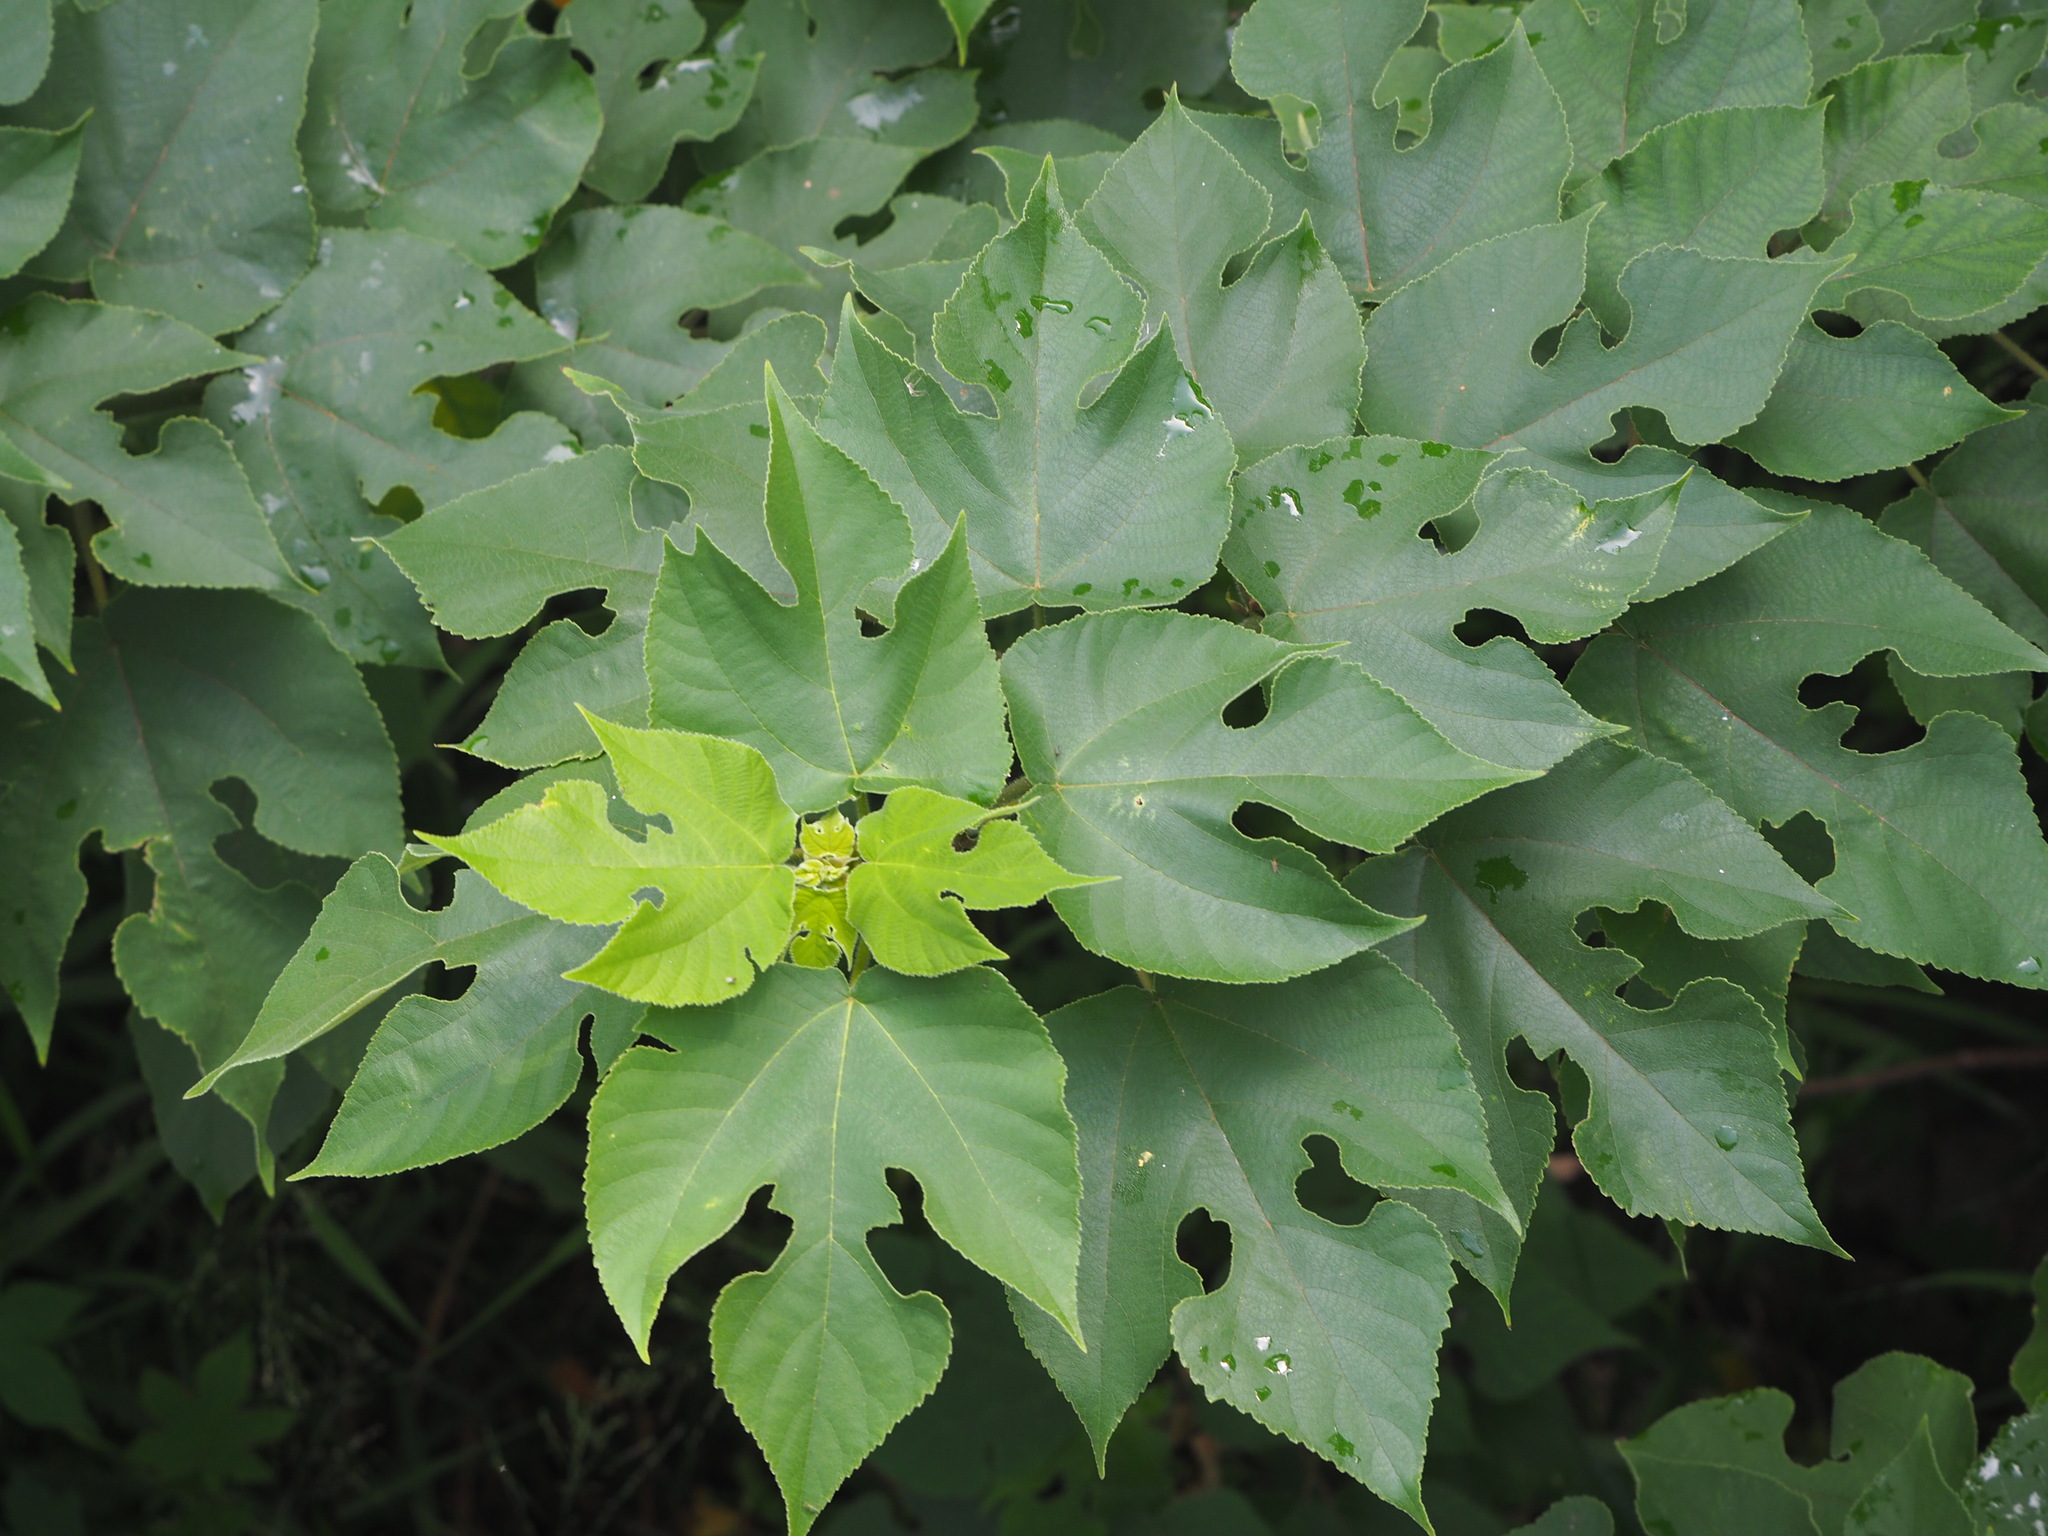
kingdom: Plantae
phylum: Tracheophyta
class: Magnoliopsida
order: Rosales
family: Moraceae
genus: Broussonetia
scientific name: Broussonetia papyrifera
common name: Paper mulberry
